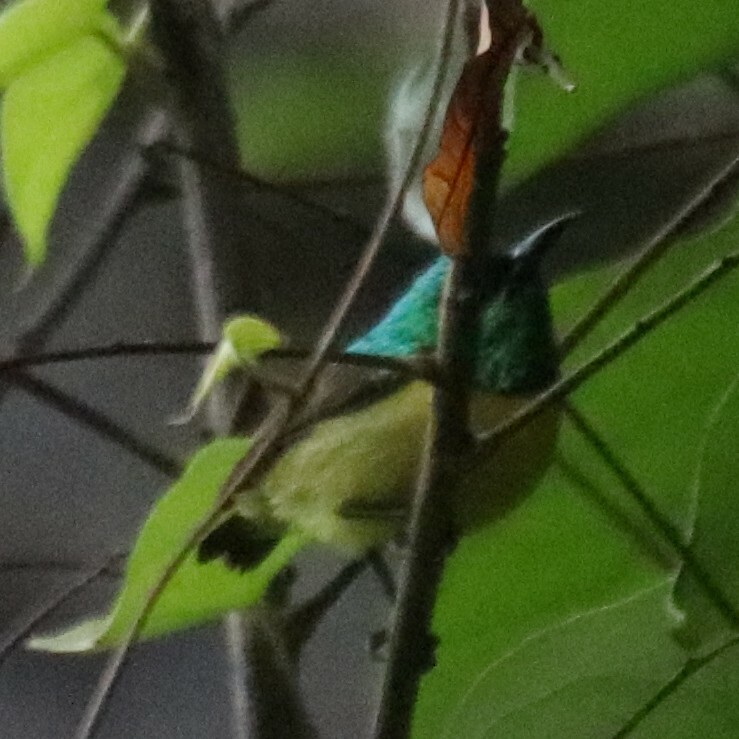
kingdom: Animalia
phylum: Chordata
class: Aves
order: Passeriformes
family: Nectariniidae
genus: Hedydipna
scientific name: Hedydipna collaris
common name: Collared sunbird
